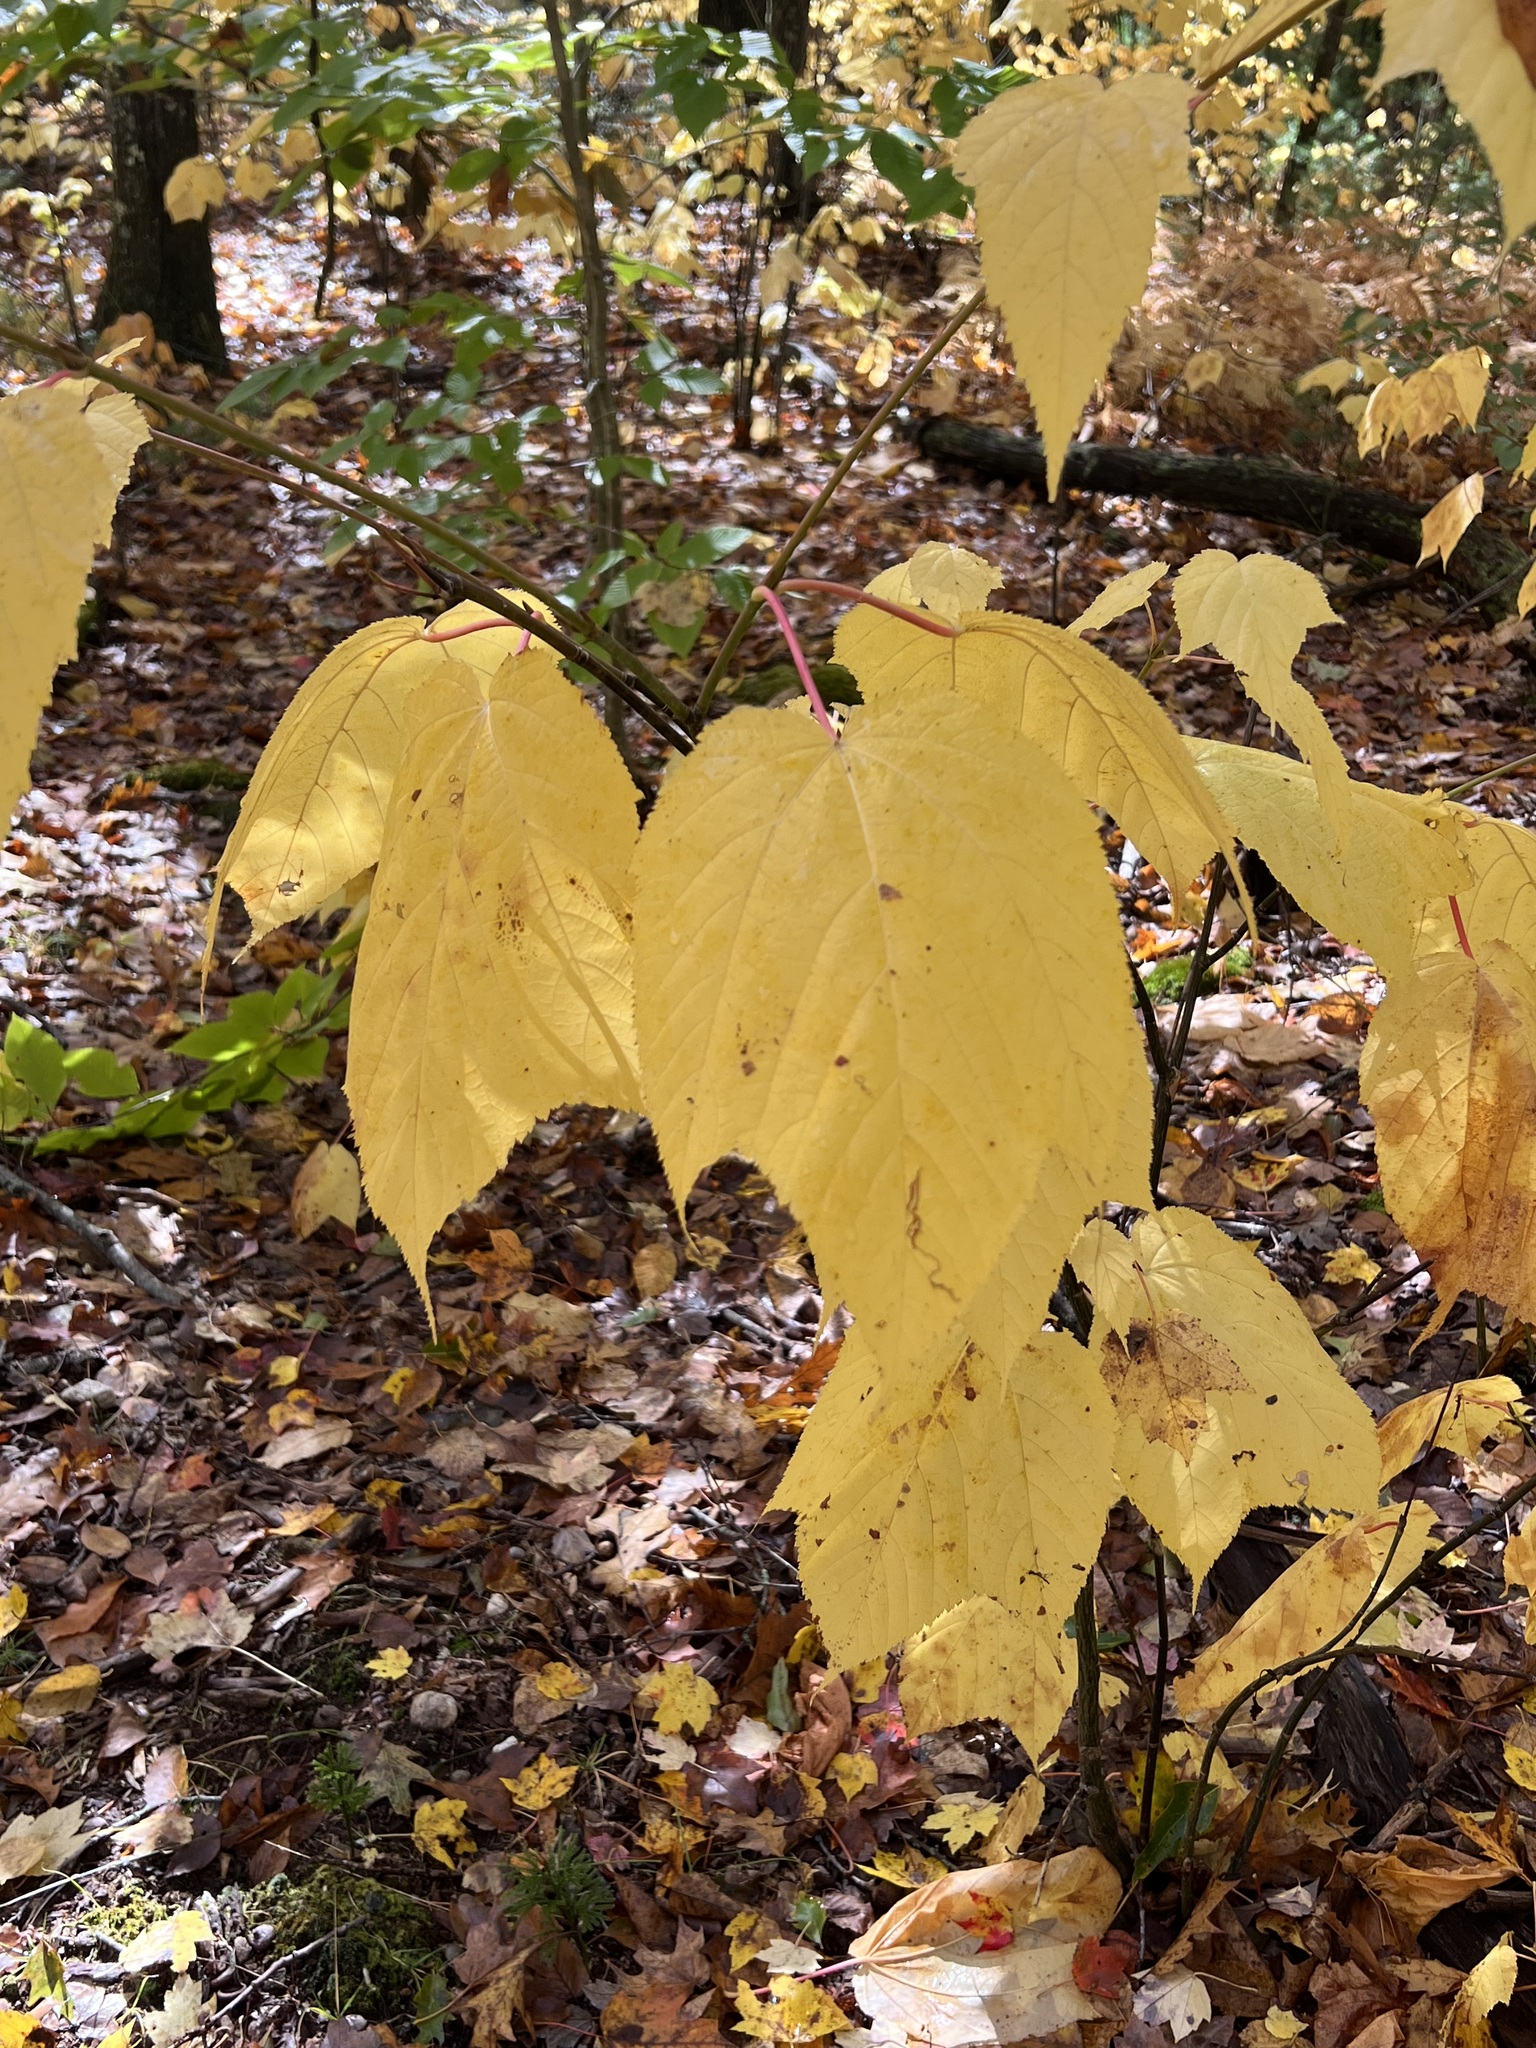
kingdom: Plantae
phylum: Tracheophyta
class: Magnoliopsida
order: Sapindales
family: Sapindaceae
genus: Acer
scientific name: Acer pensylvanicum
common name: Moosewood
